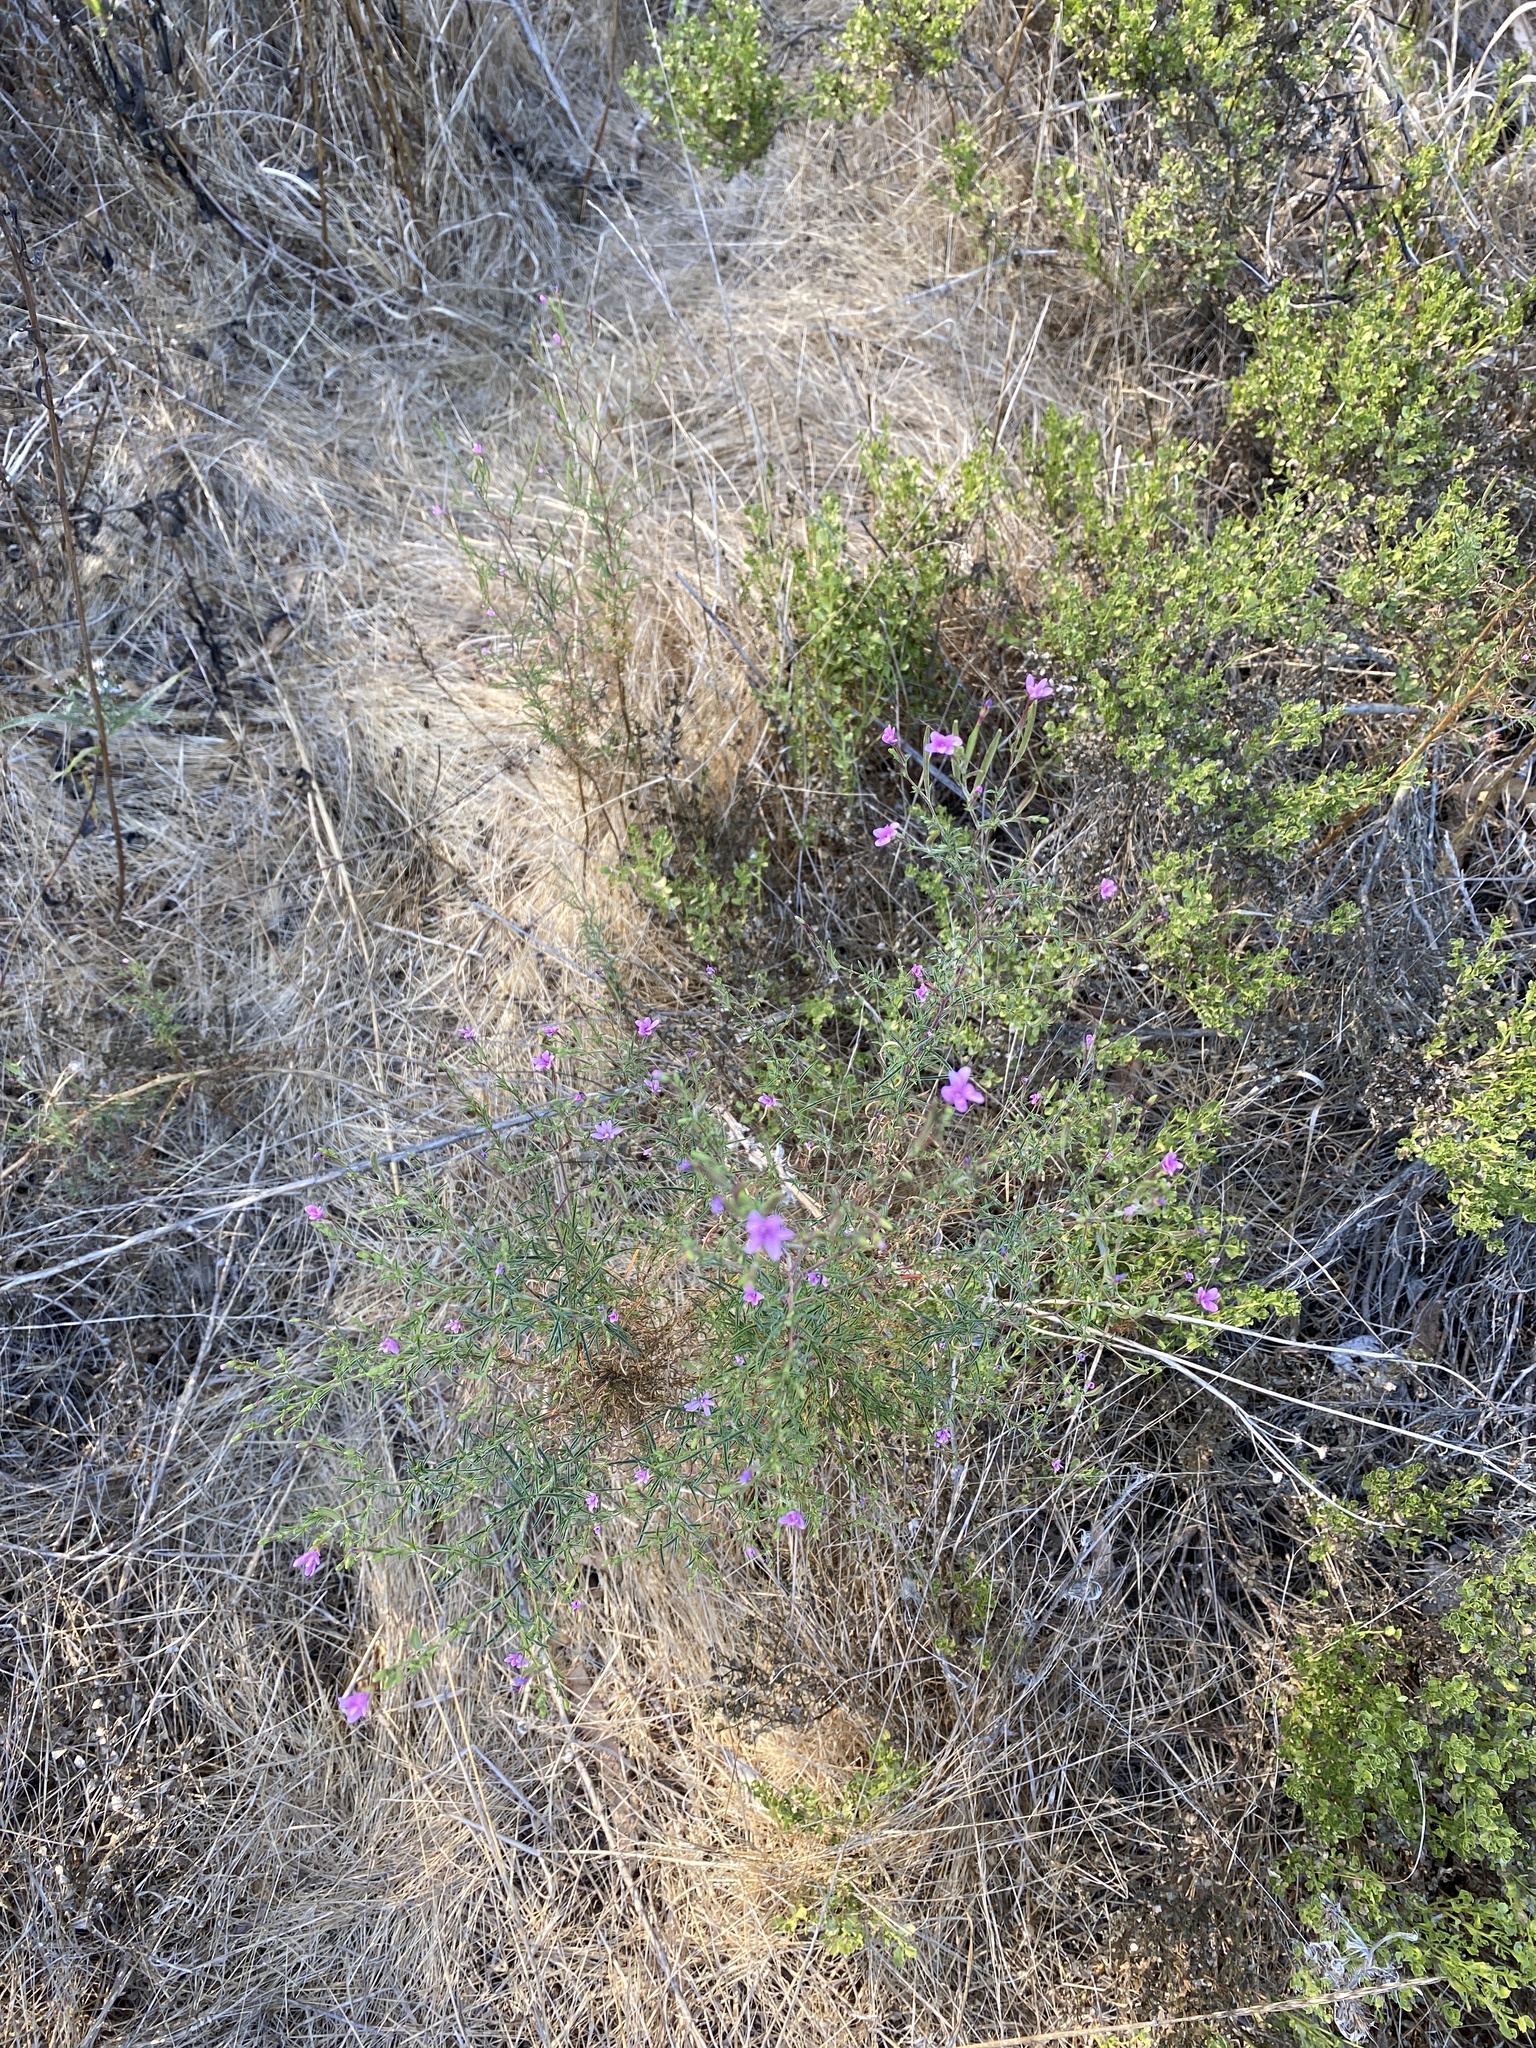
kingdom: Plantae
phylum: Tracheophyta
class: Magnoliopsida
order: Myrtales
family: Onagraceae
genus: Epilobium
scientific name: Epilobium brachycarpum
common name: Annual willowherb
